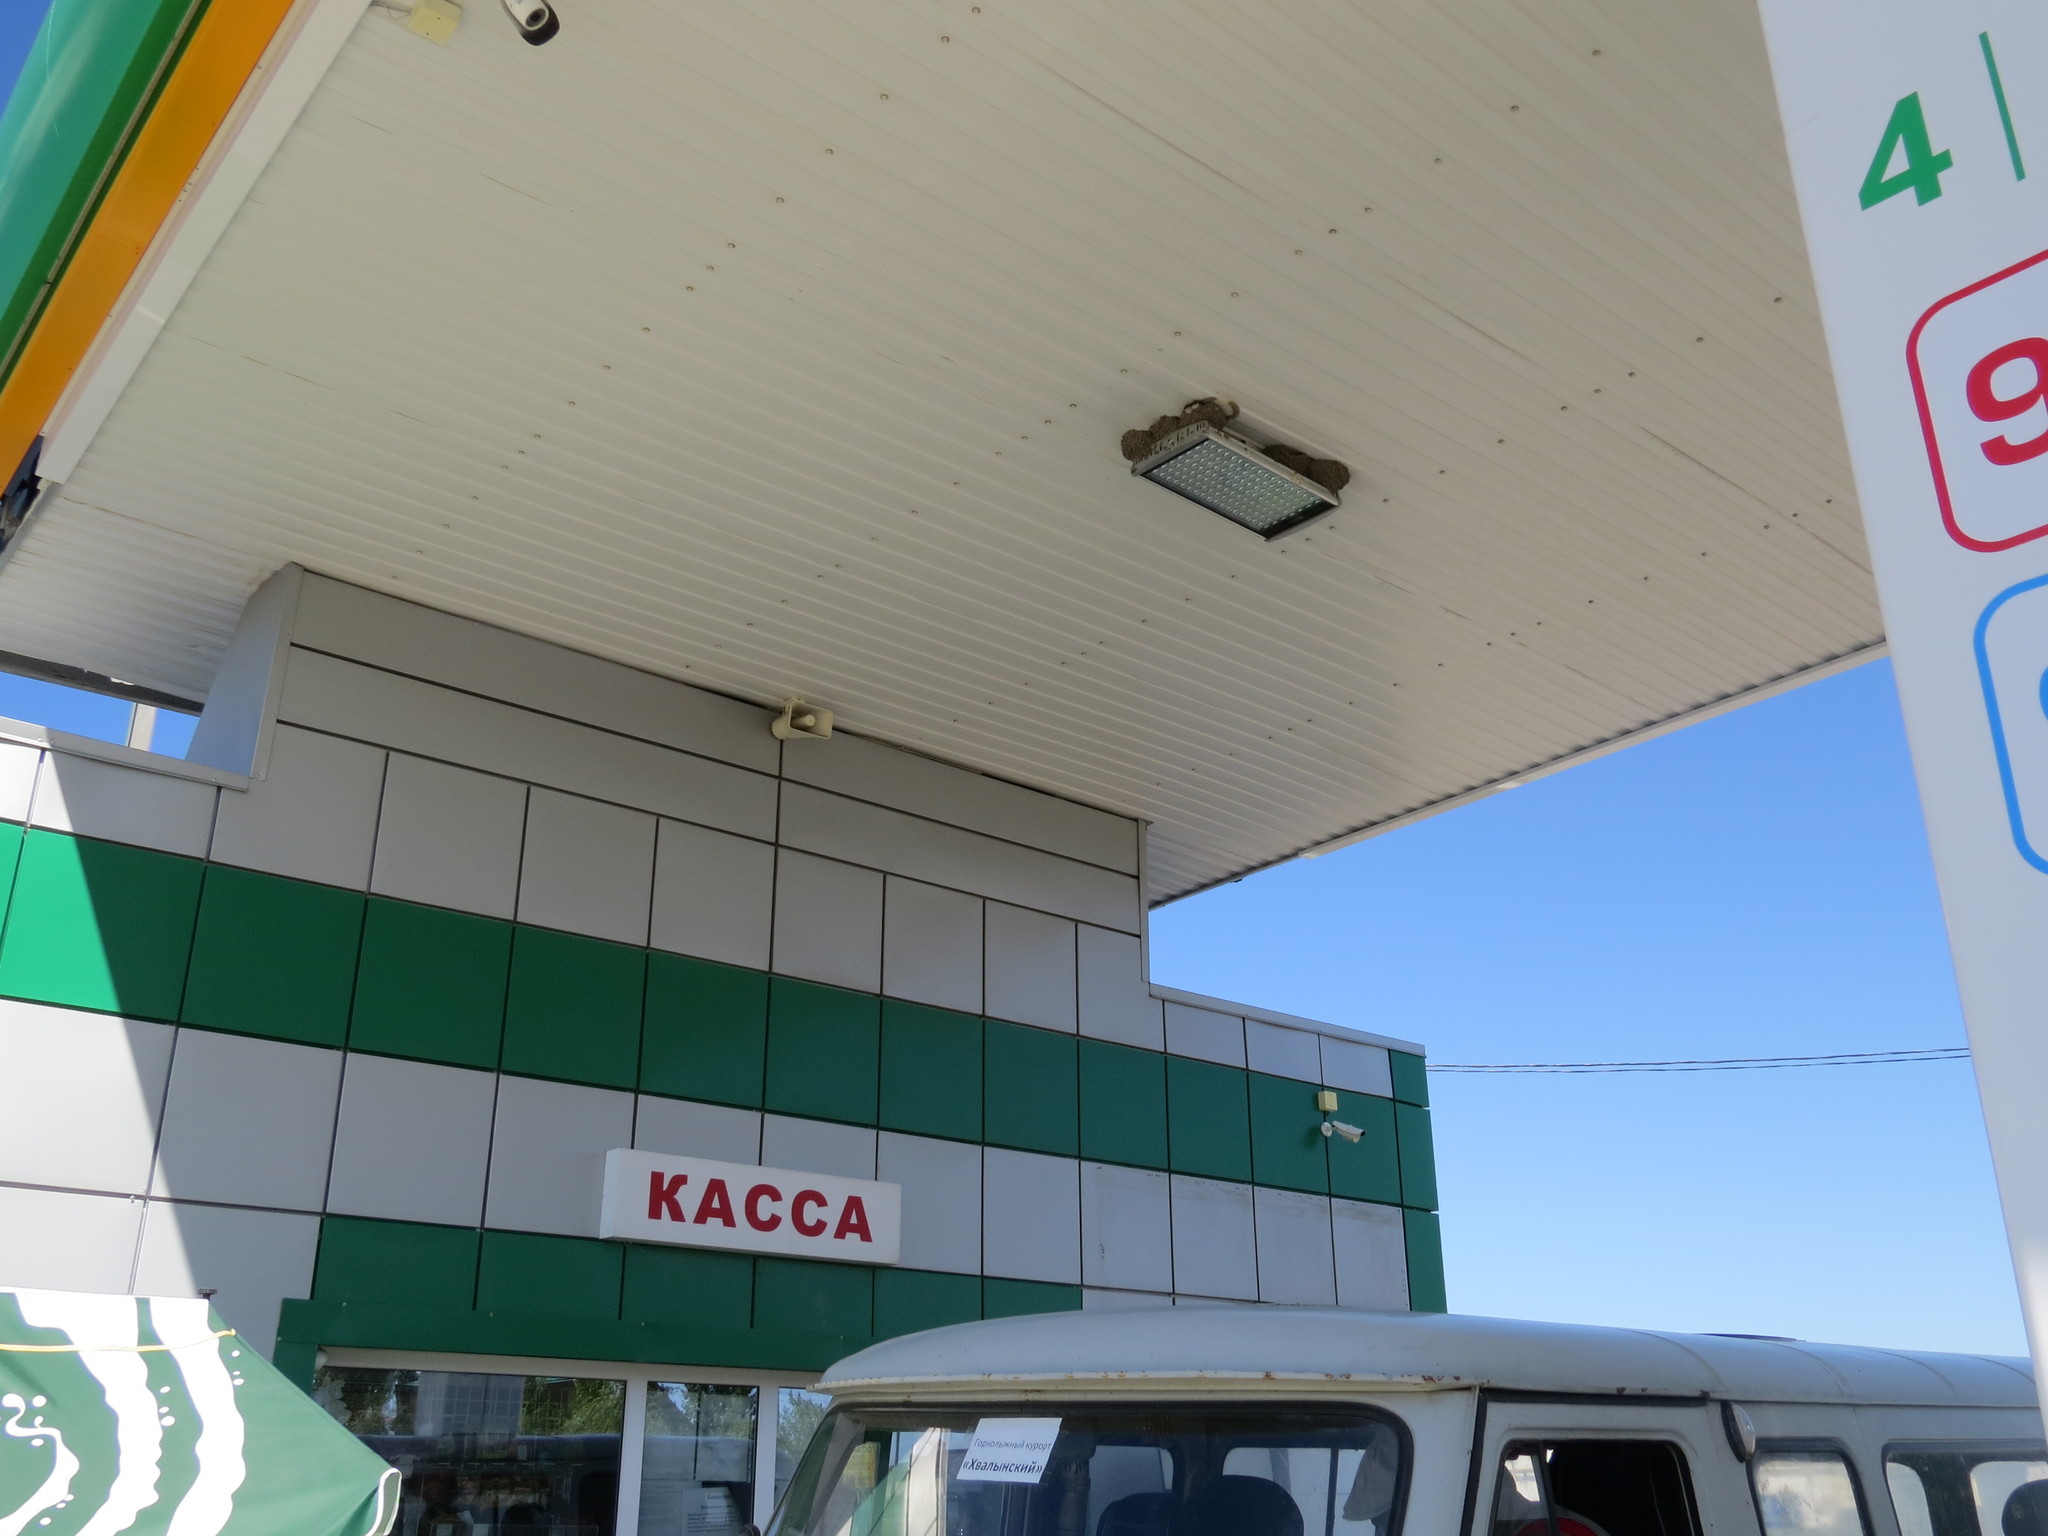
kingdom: Animalia
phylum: Chordata
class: Aves
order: Passeriformes
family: Hirundinidae
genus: Delichon
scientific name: Delichon urbicum
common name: Common house martin
